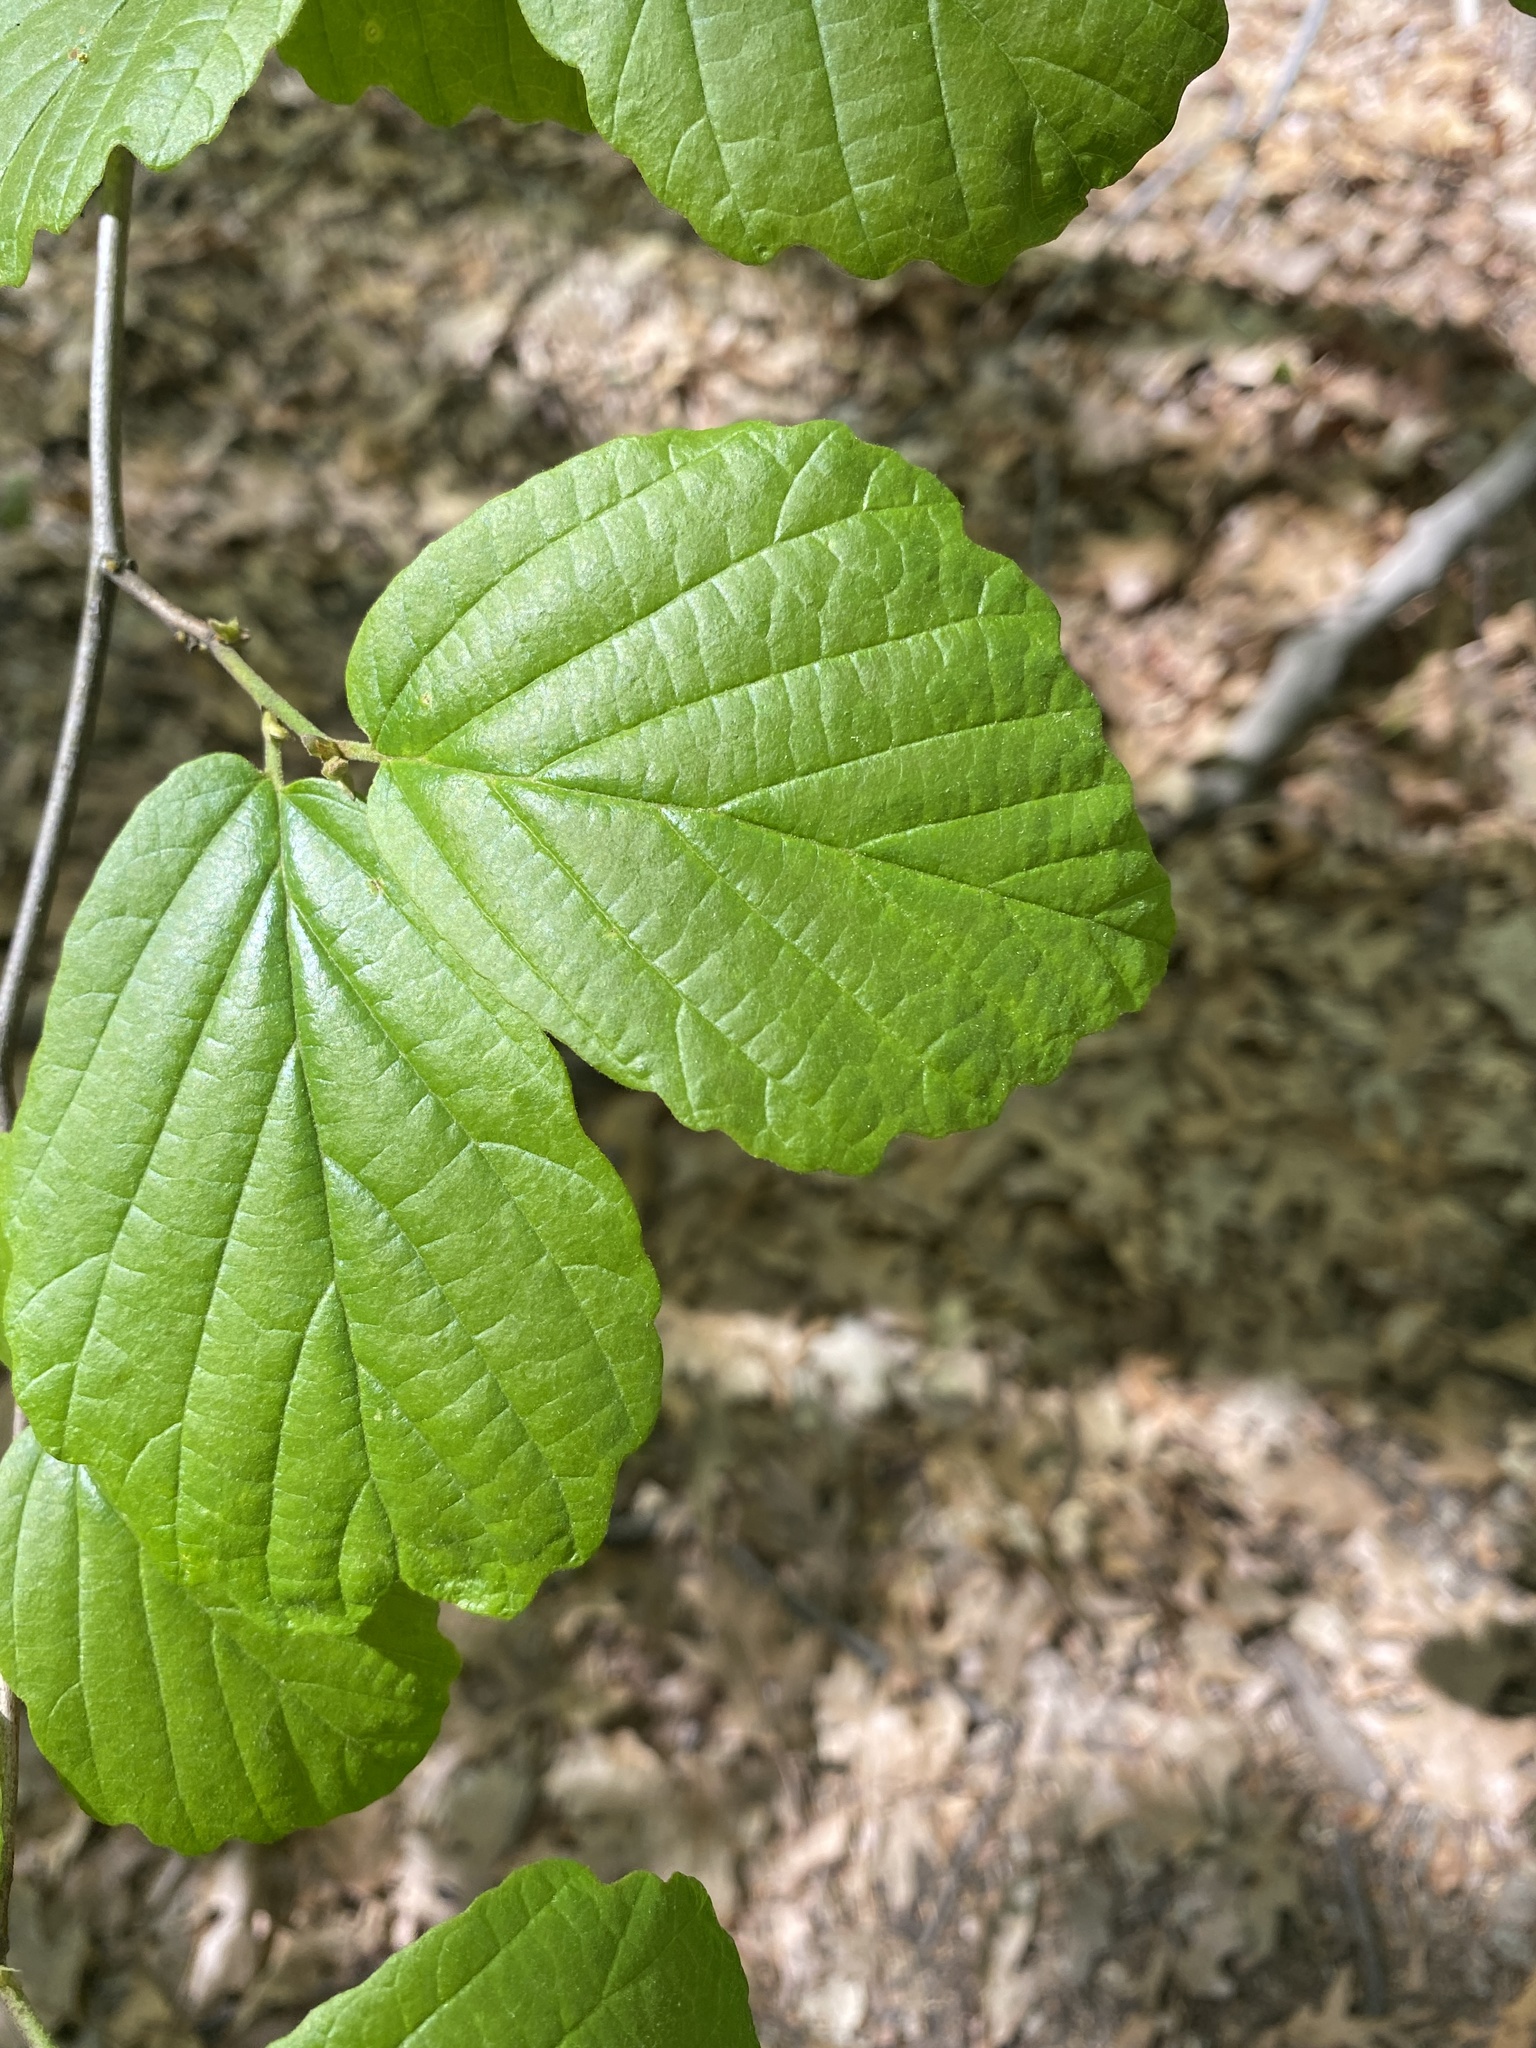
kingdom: Plantae
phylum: Tracheophyta
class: Magnoliopsida
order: Saxifragales
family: Hamamelidaceae
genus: Hamamelis
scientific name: Hamamelis virginiana
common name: Witch-hazel
